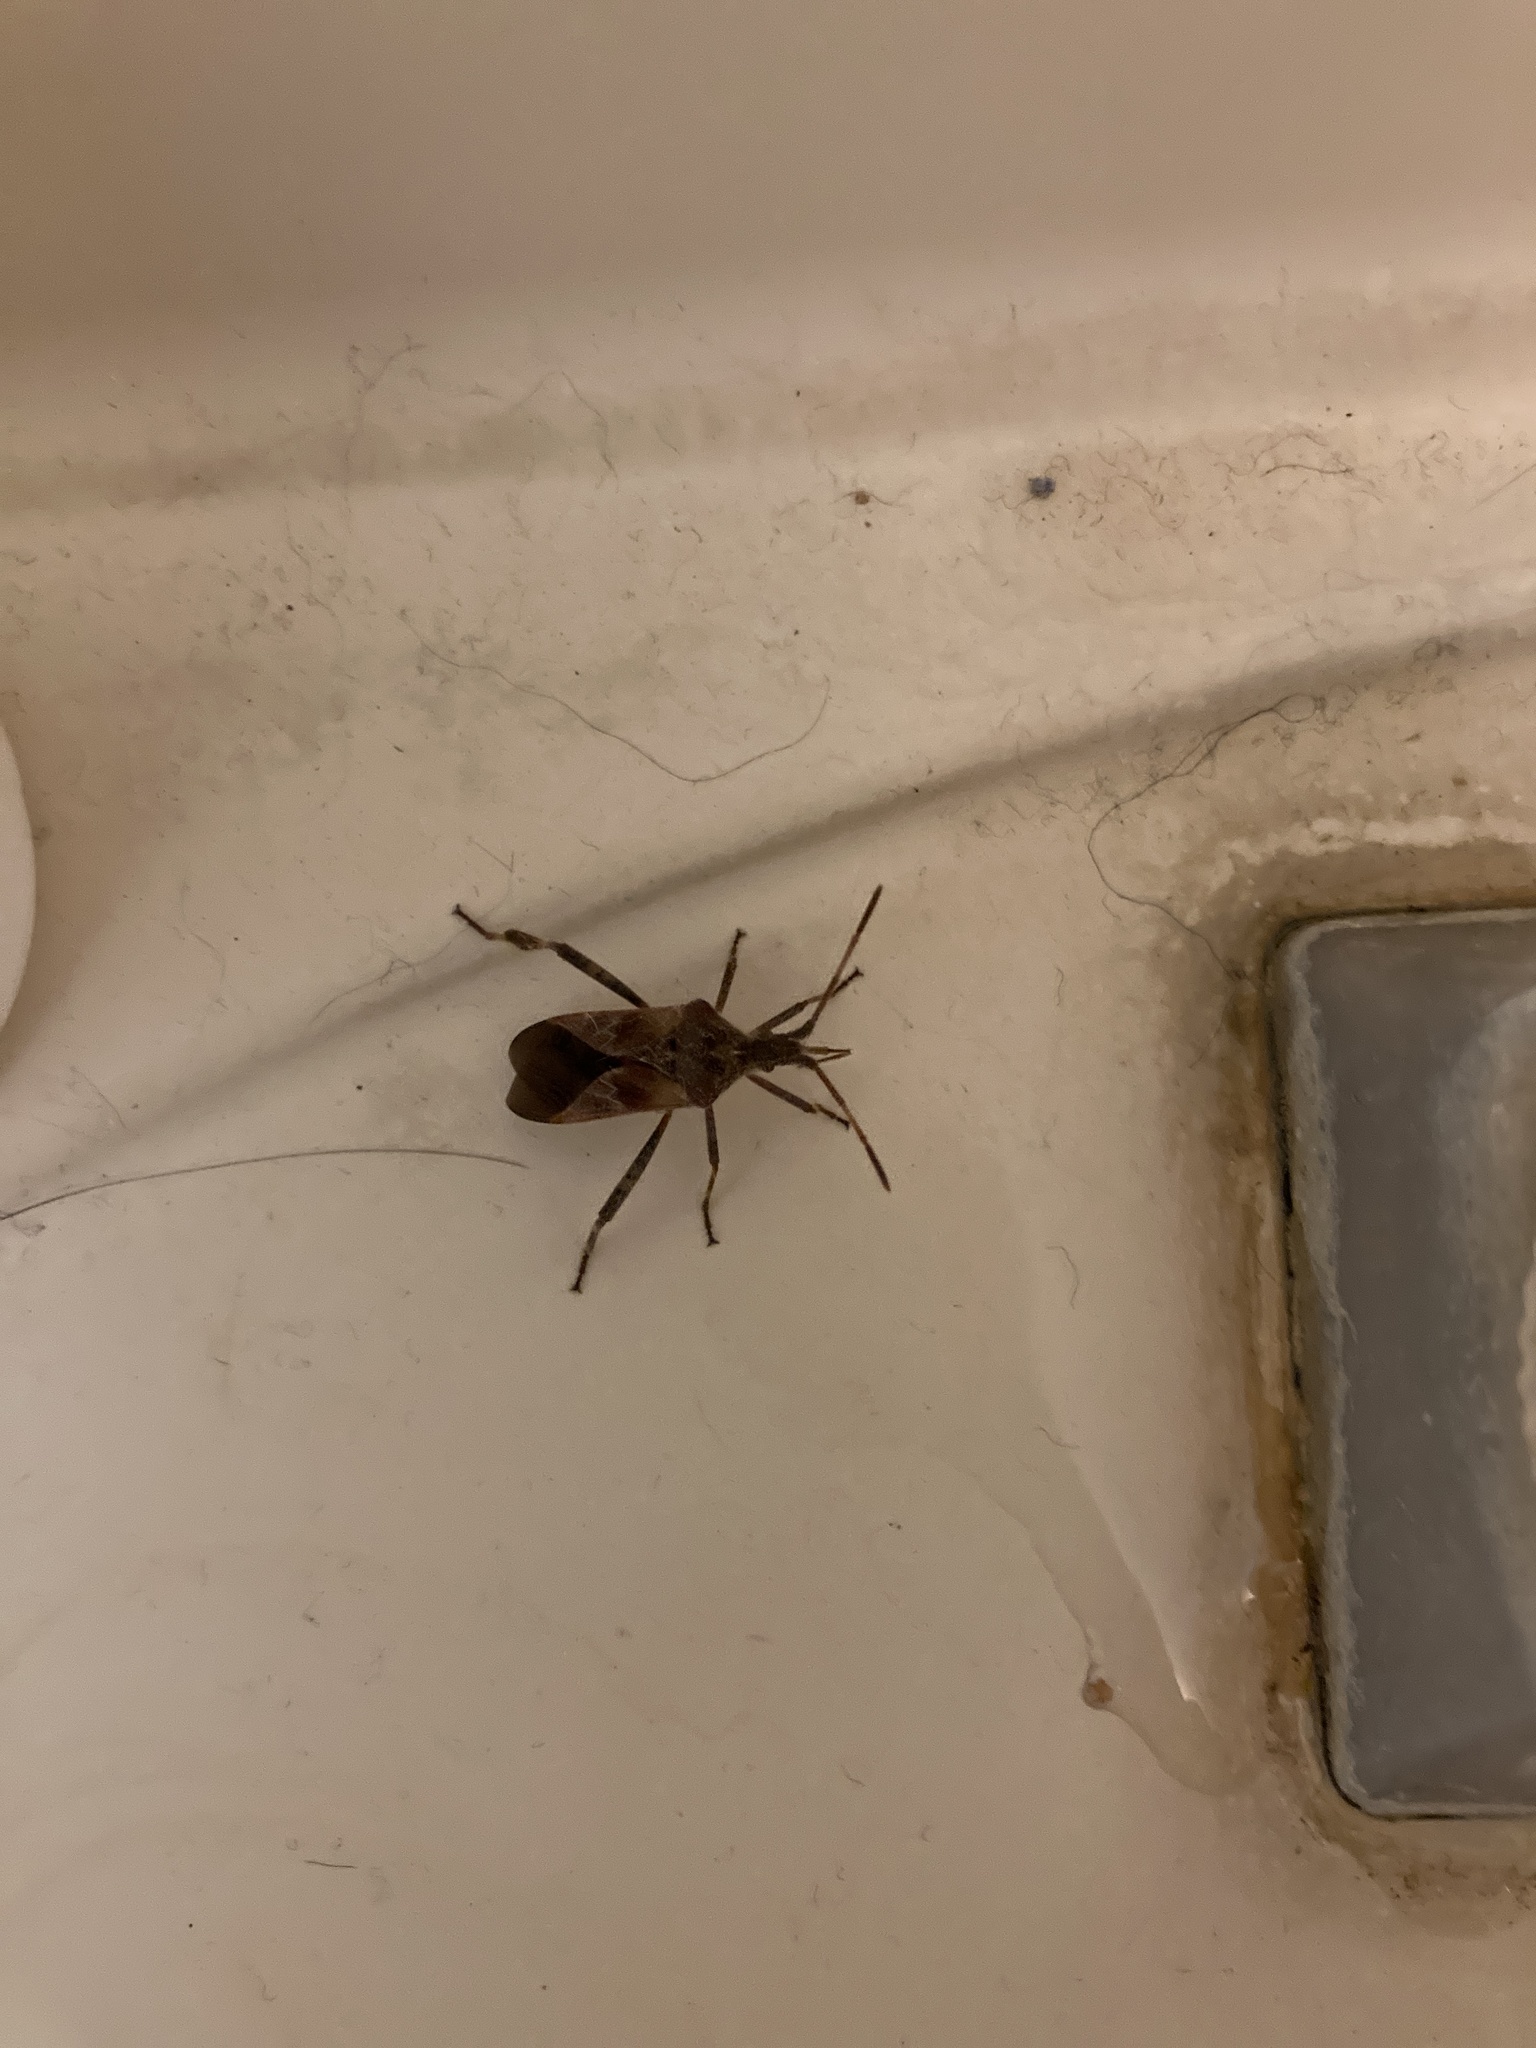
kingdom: Animalia
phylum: Arthropoda
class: Insecta
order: Hemiptera
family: Coreidae
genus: Leptoglossus
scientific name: Leptoglossus occidentalis
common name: Western conifer-seed bug
